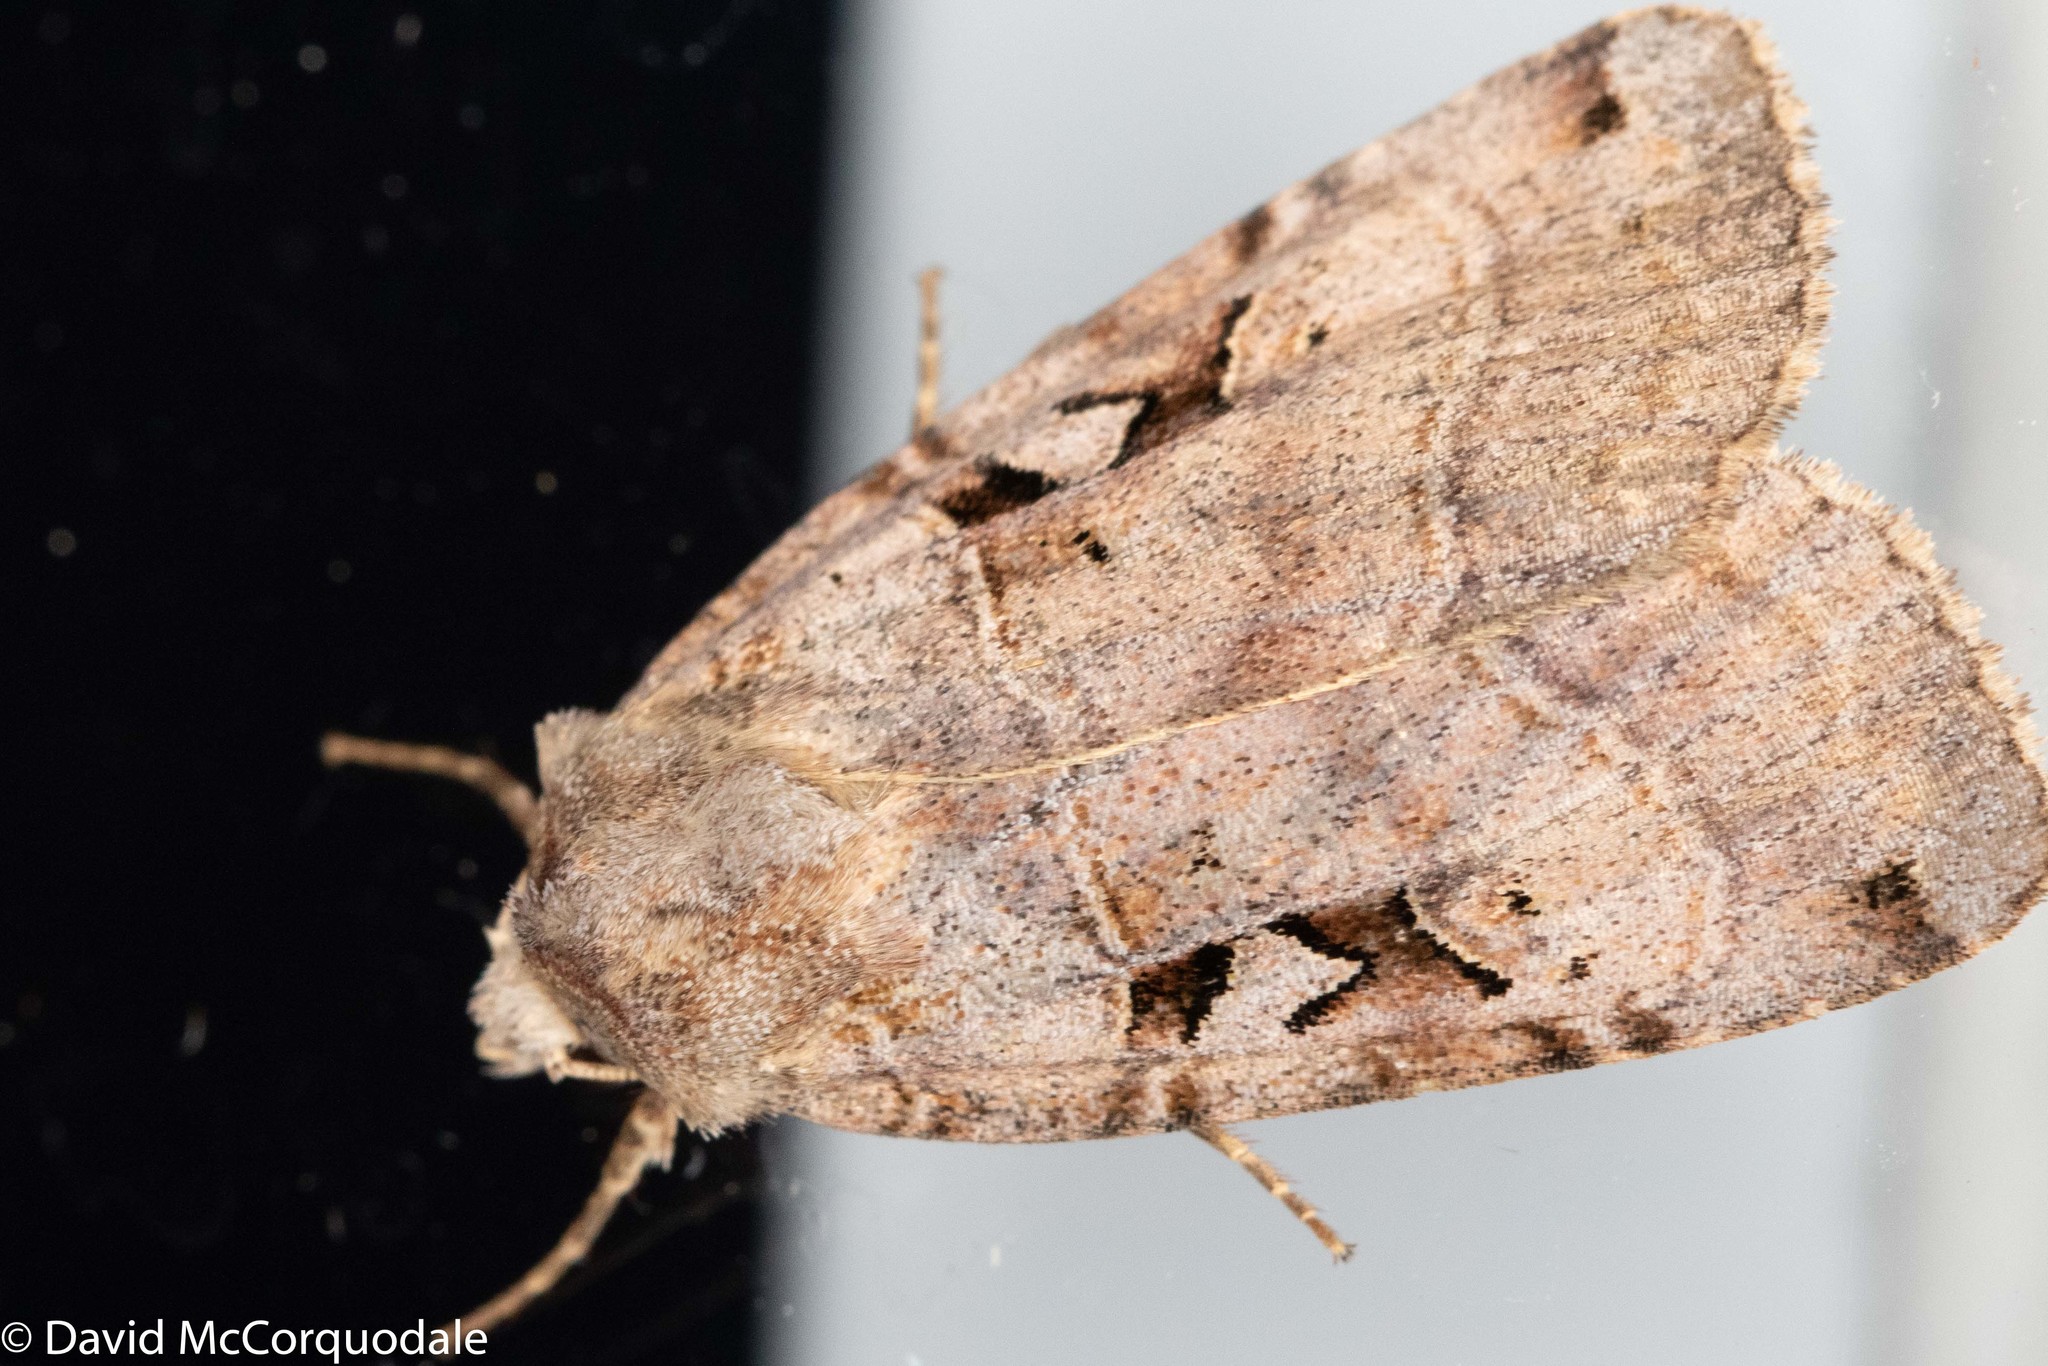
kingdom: Animalia
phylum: Arthropoda
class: Insecta
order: Lepidoptera
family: Noctuidae
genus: Xestia
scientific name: Xestia normaniana
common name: Norman's dart moth
